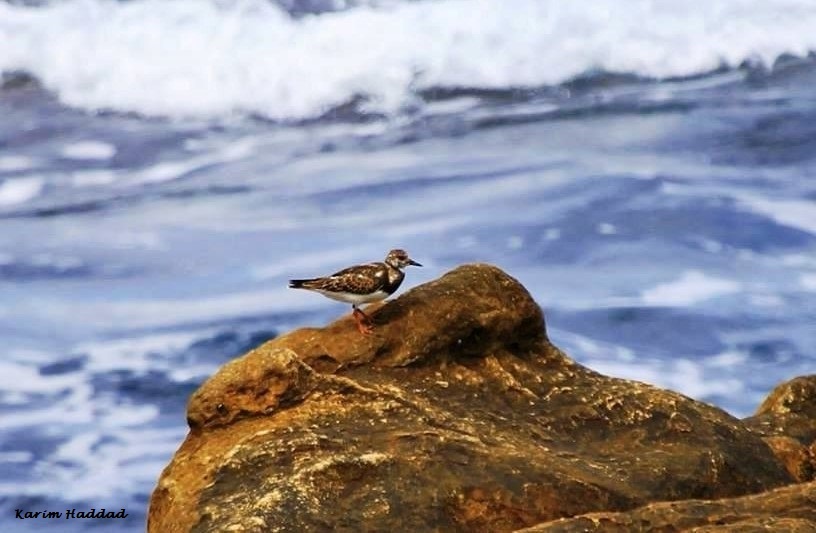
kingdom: Animalia
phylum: Chordata
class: Aves
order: Charadriiformes
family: Scolopacidae
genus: Arenaria
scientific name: Arenaria interpres
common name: Ruddy turnstone
